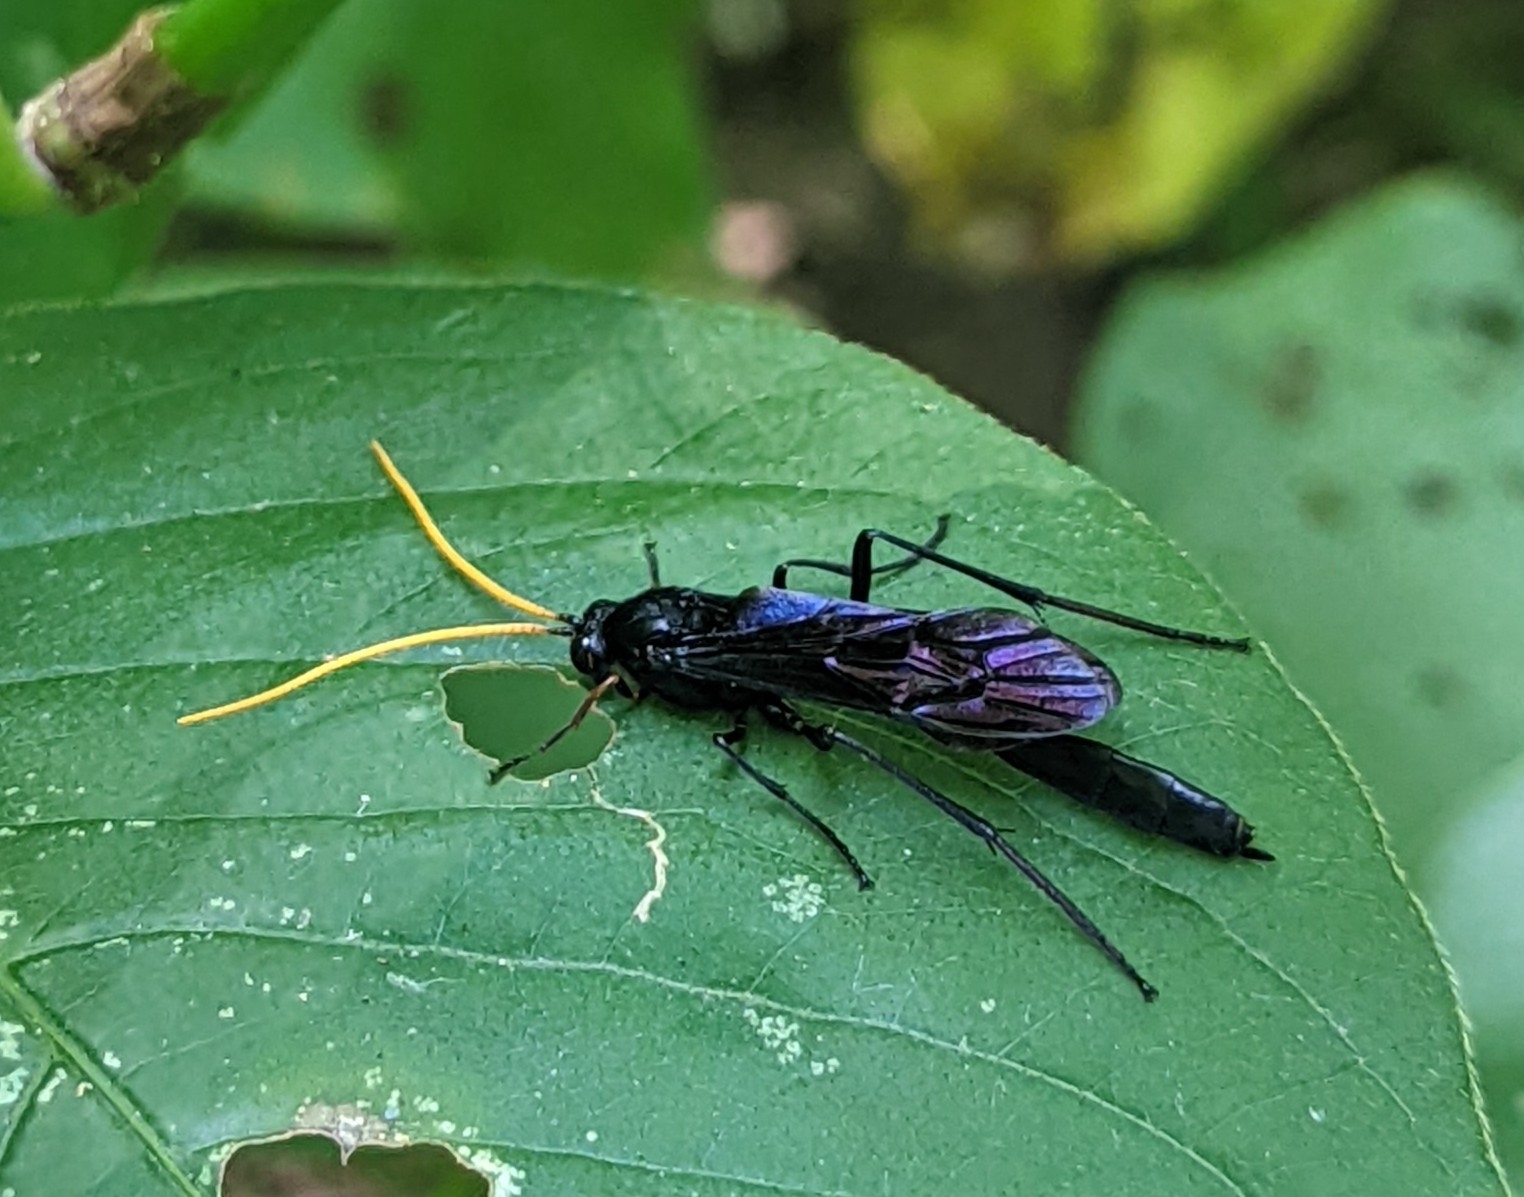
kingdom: Animalia
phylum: Arthropoda
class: Insecta
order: Hymenoptera
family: Ichneumonidae
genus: Heteropelma
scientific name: Heteropelma datanae
